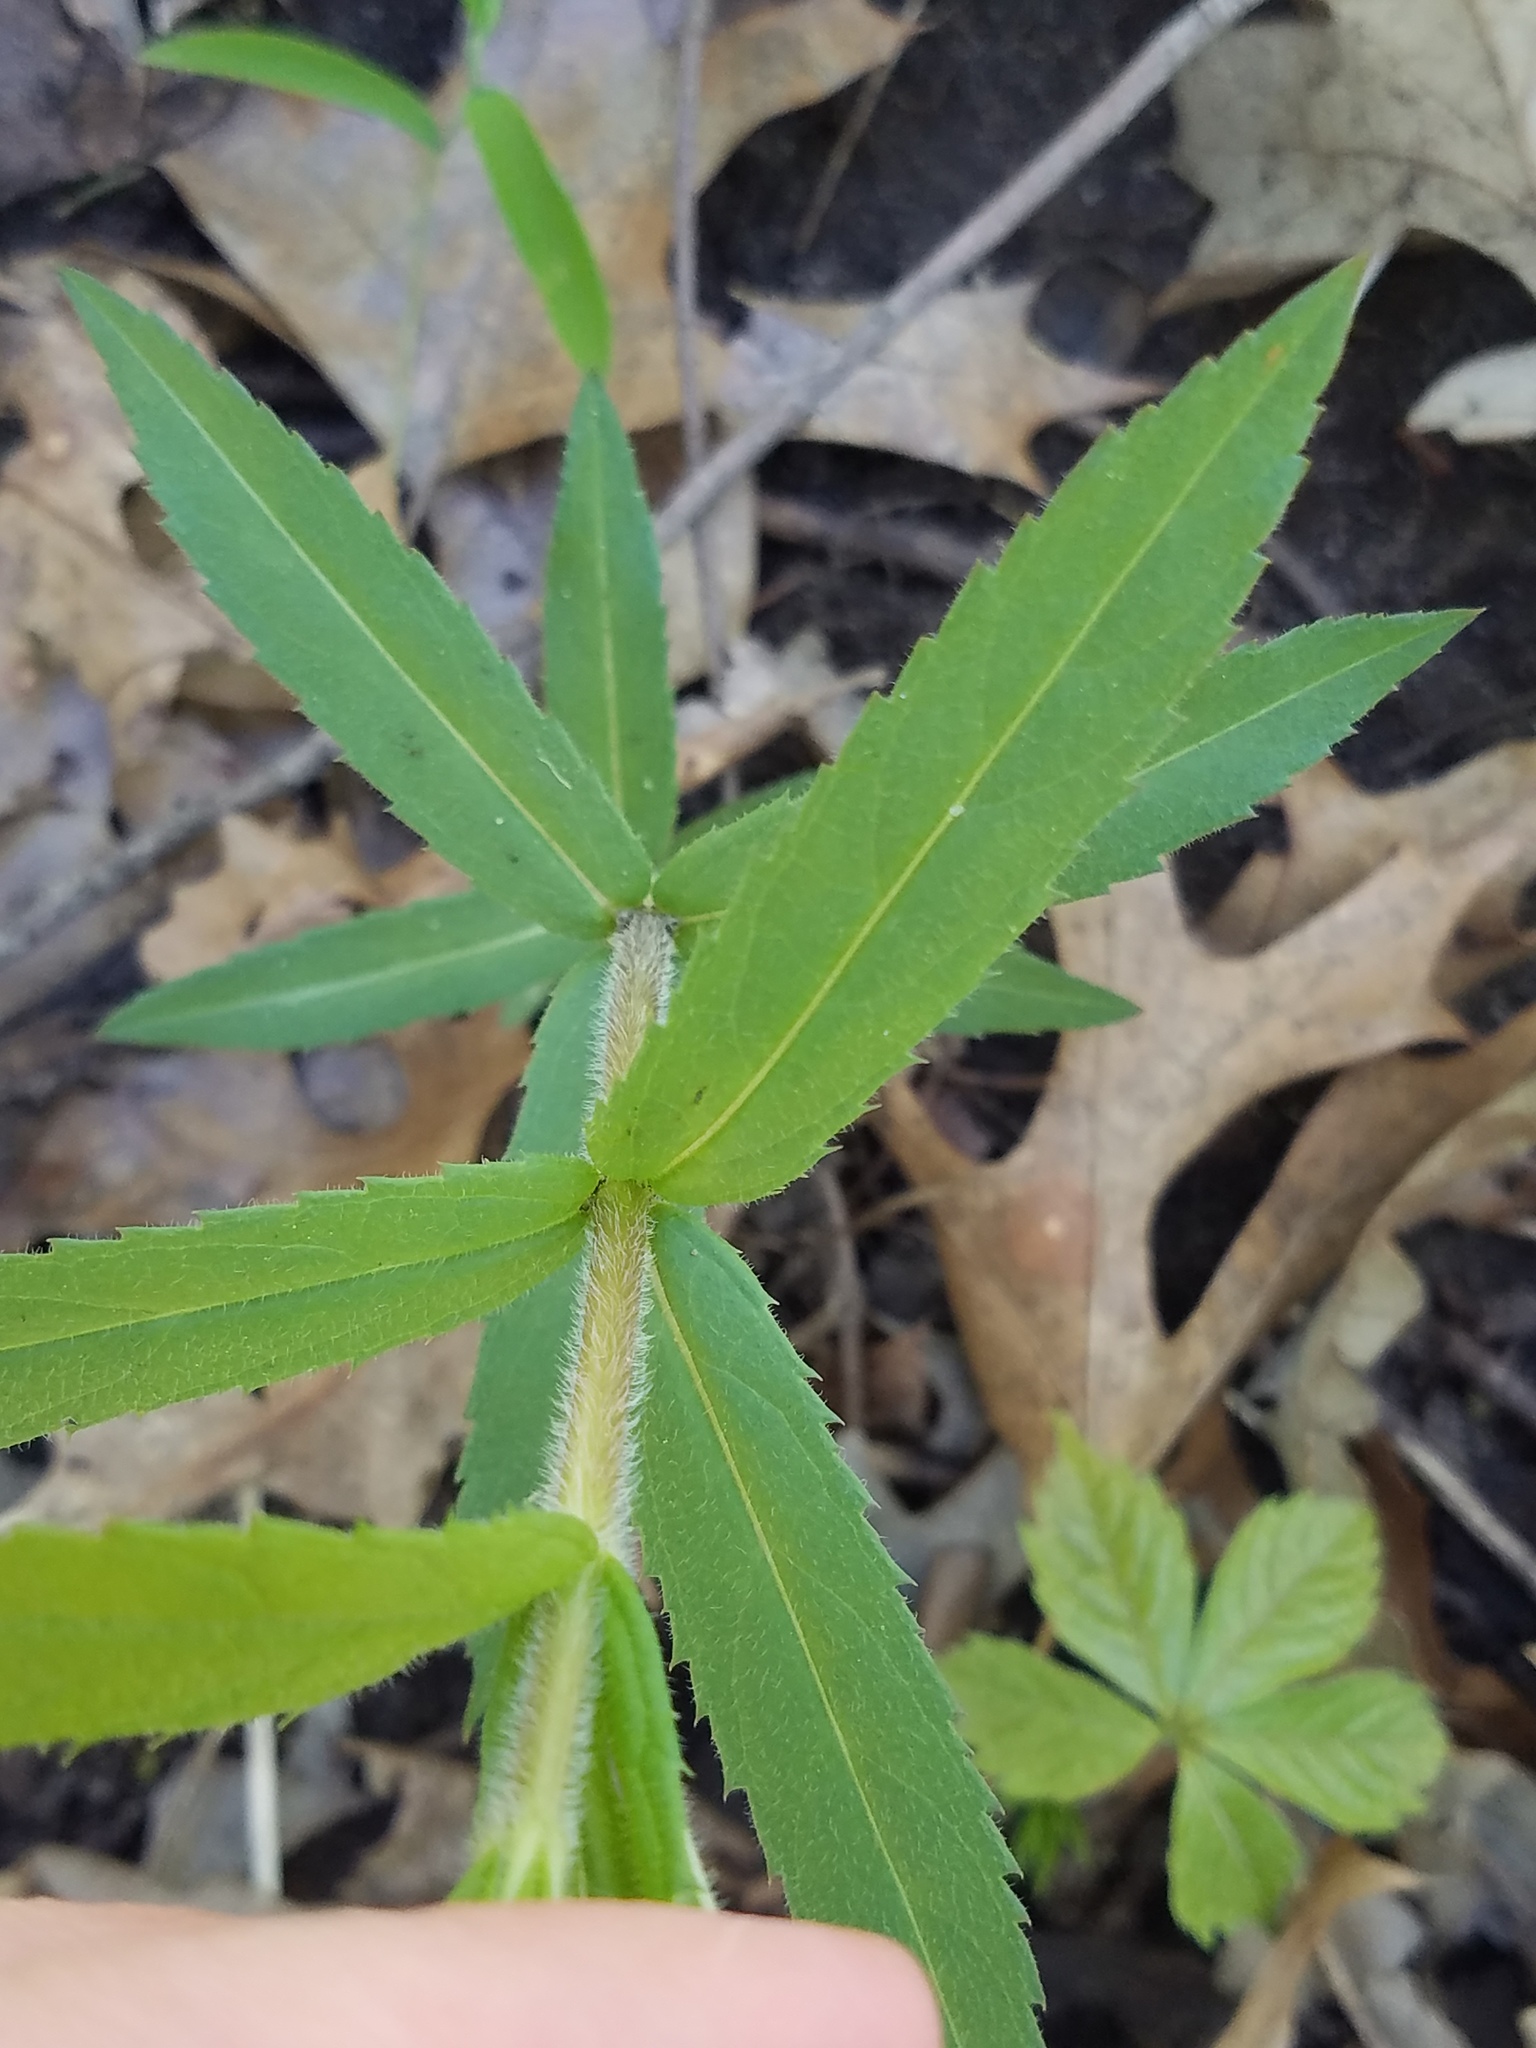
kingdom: Plantae
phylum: Tracheophyta
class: Magnoliopsida
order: Lamiales
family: Plantaginaceae
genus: Veronicastrum
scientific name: Veronicastrum virginicum
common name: Blackroot
